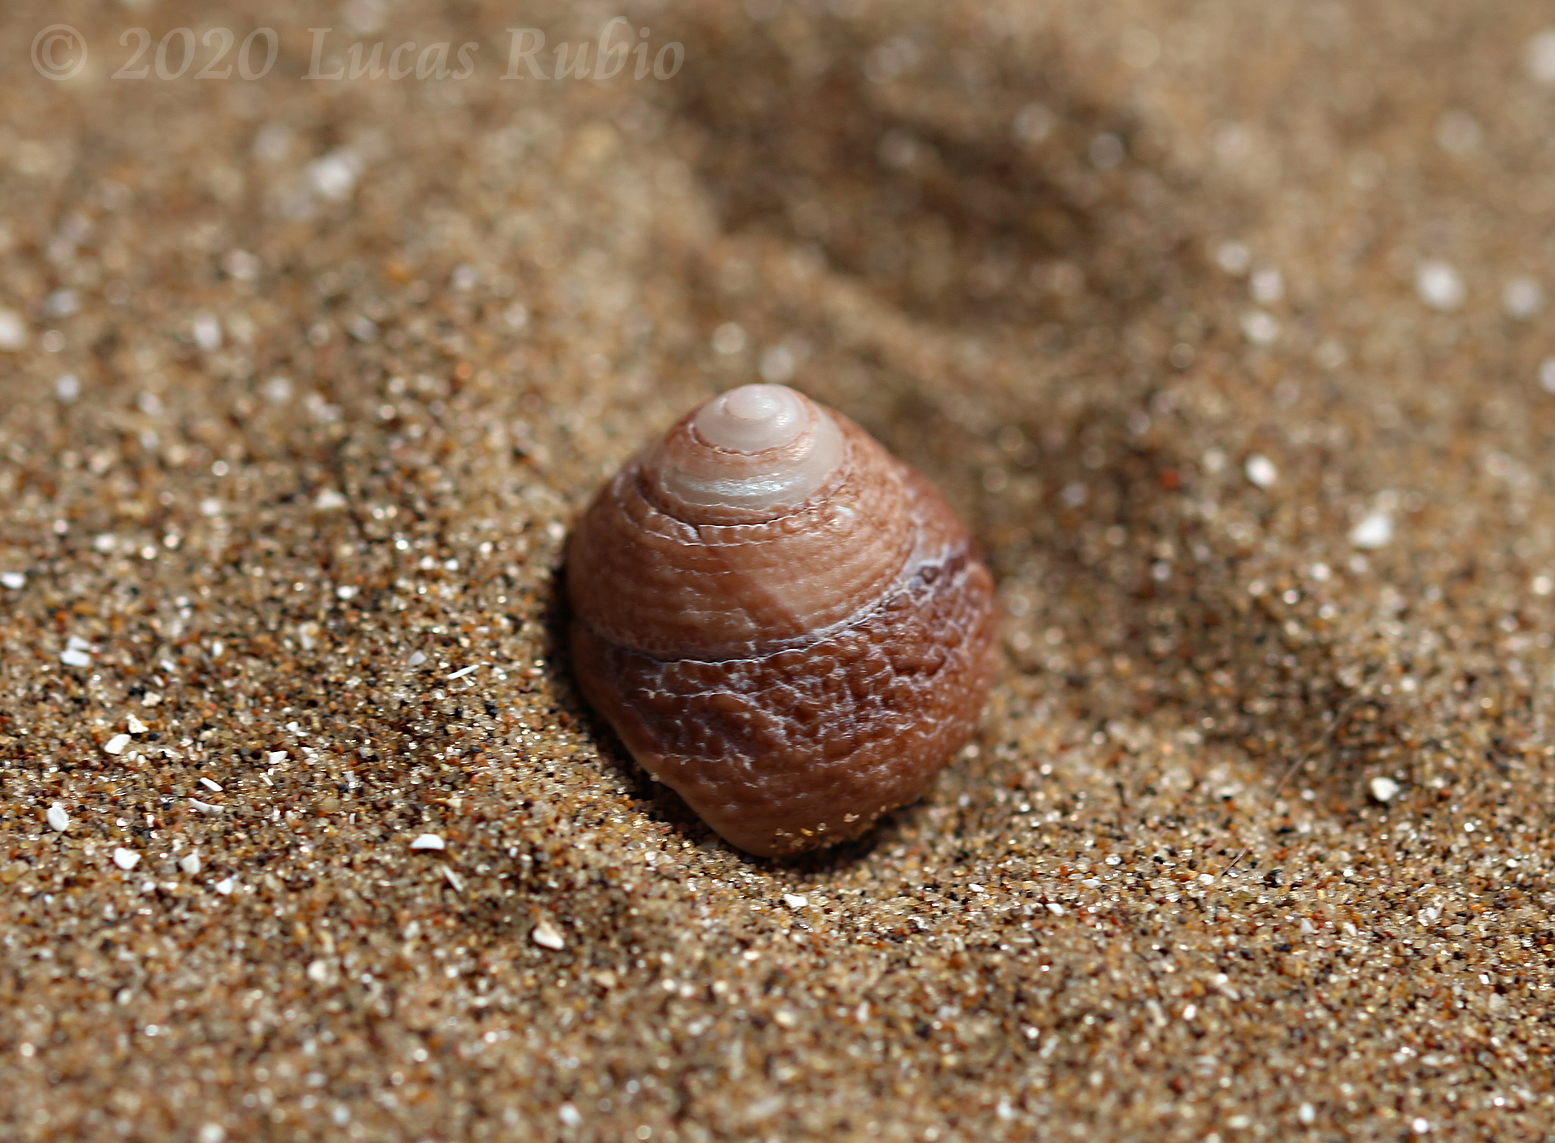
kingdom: Animalia
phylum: Mollusca
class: Gastropoda
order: Trochida
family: Tegulidae
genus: Tegula
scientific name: Tegula patagonica
